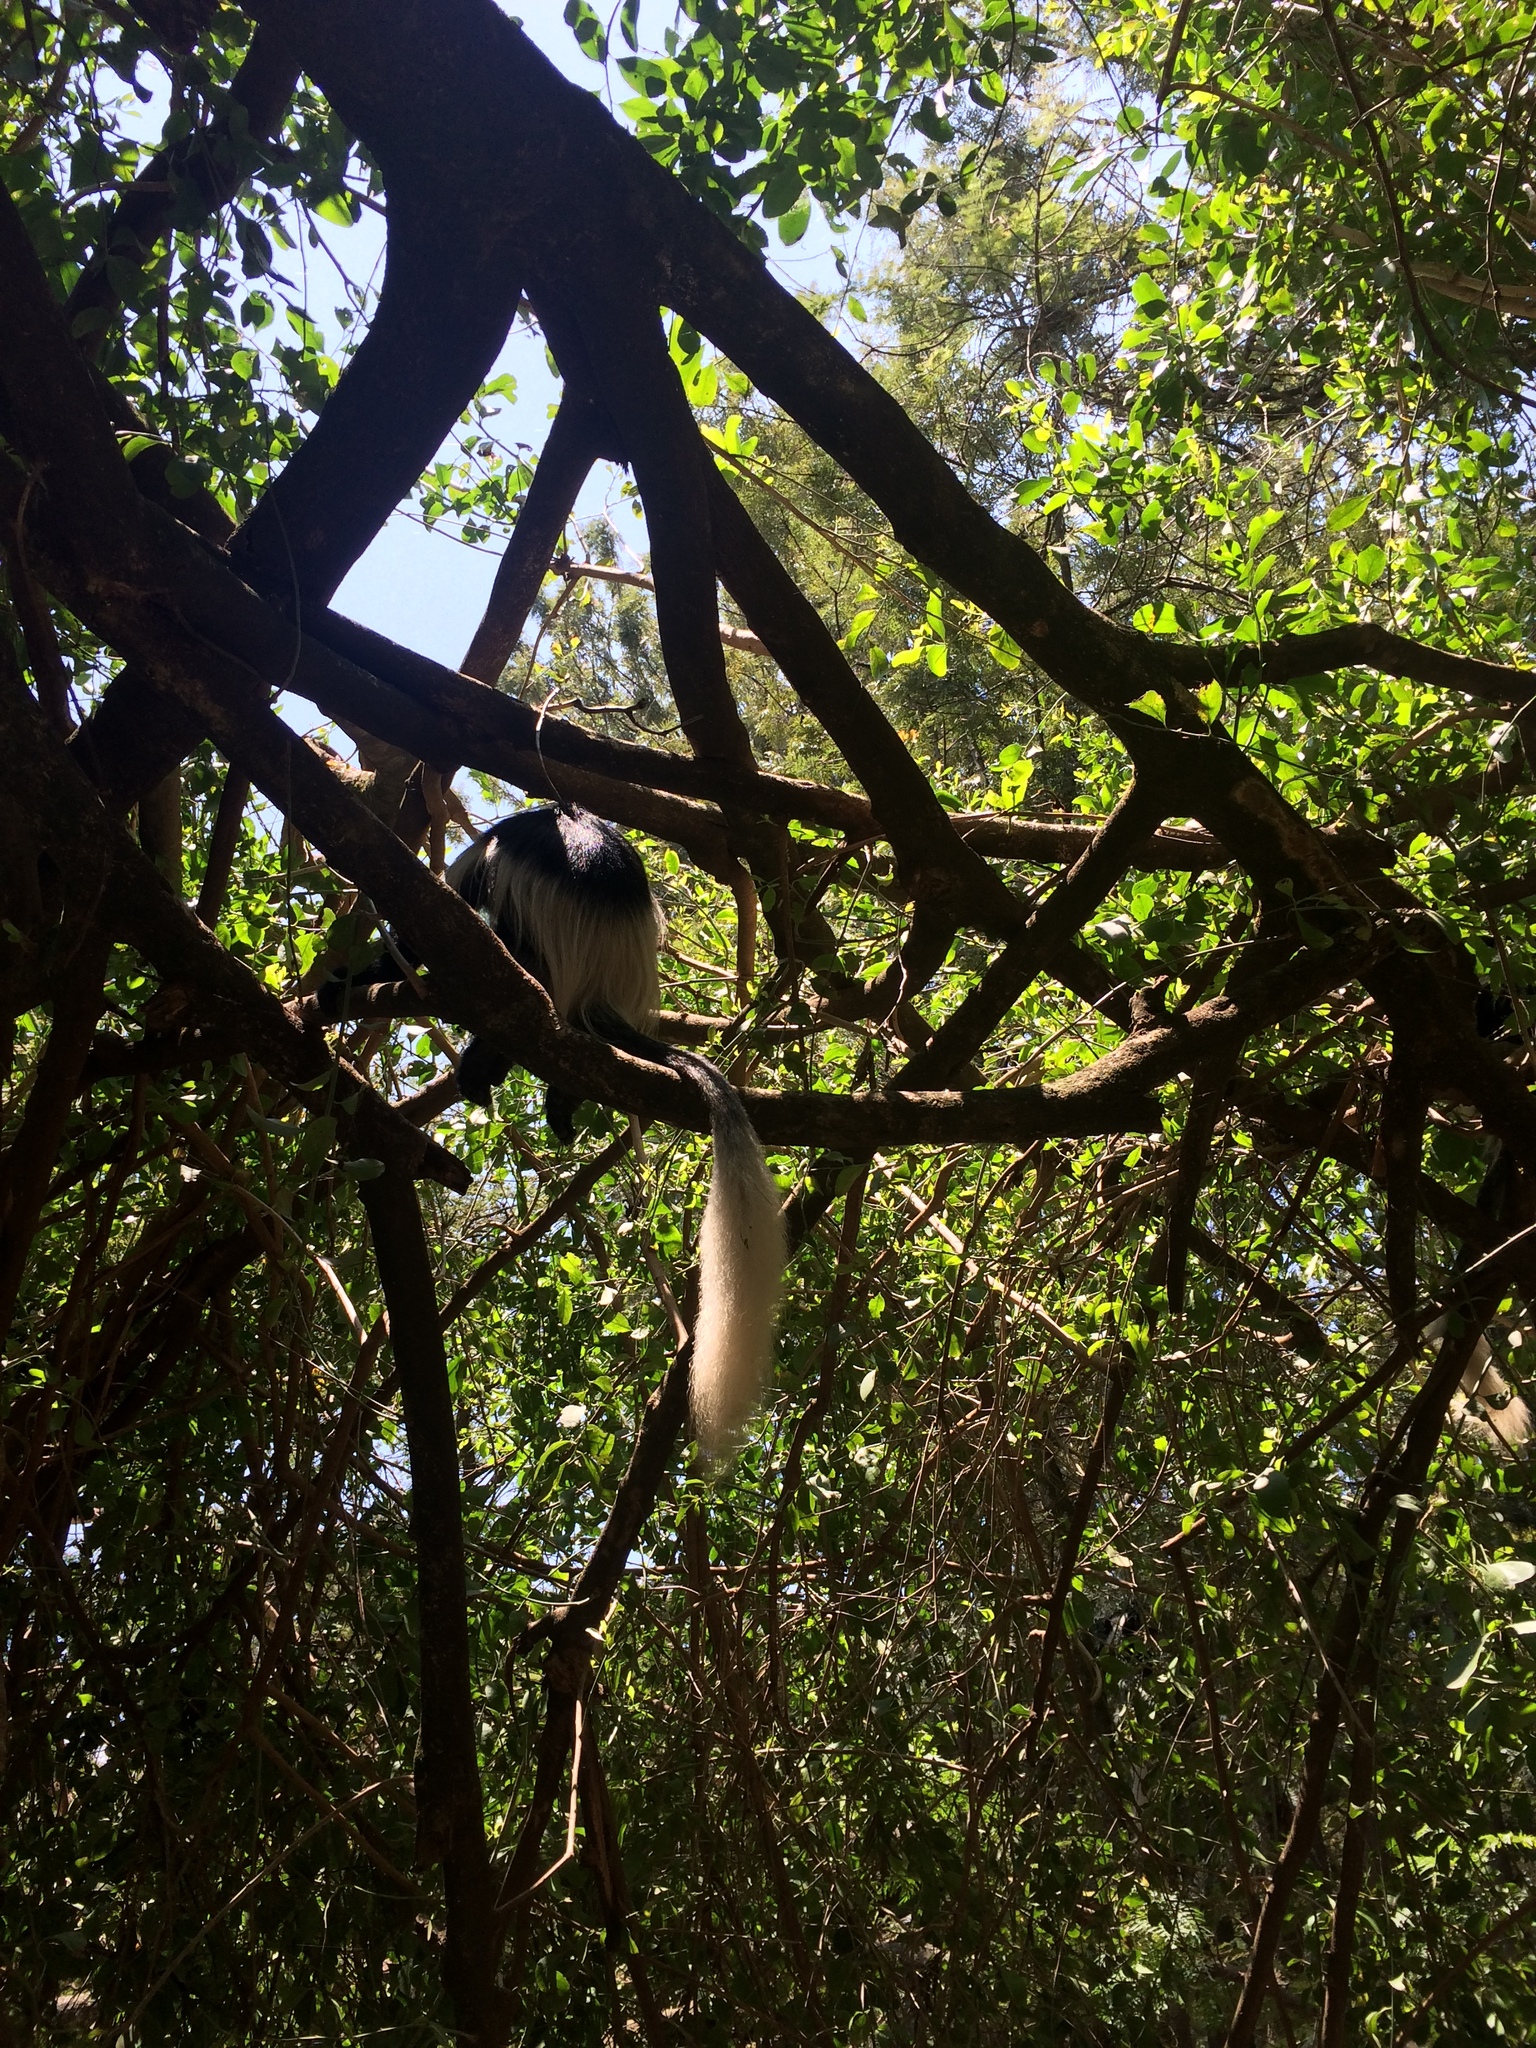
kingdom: Animalia
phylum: Chordata
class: Mammalia
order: Primates
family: Cercopithecidae
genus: Colobus
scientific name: Colobus guereza
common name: Mantled guereza
